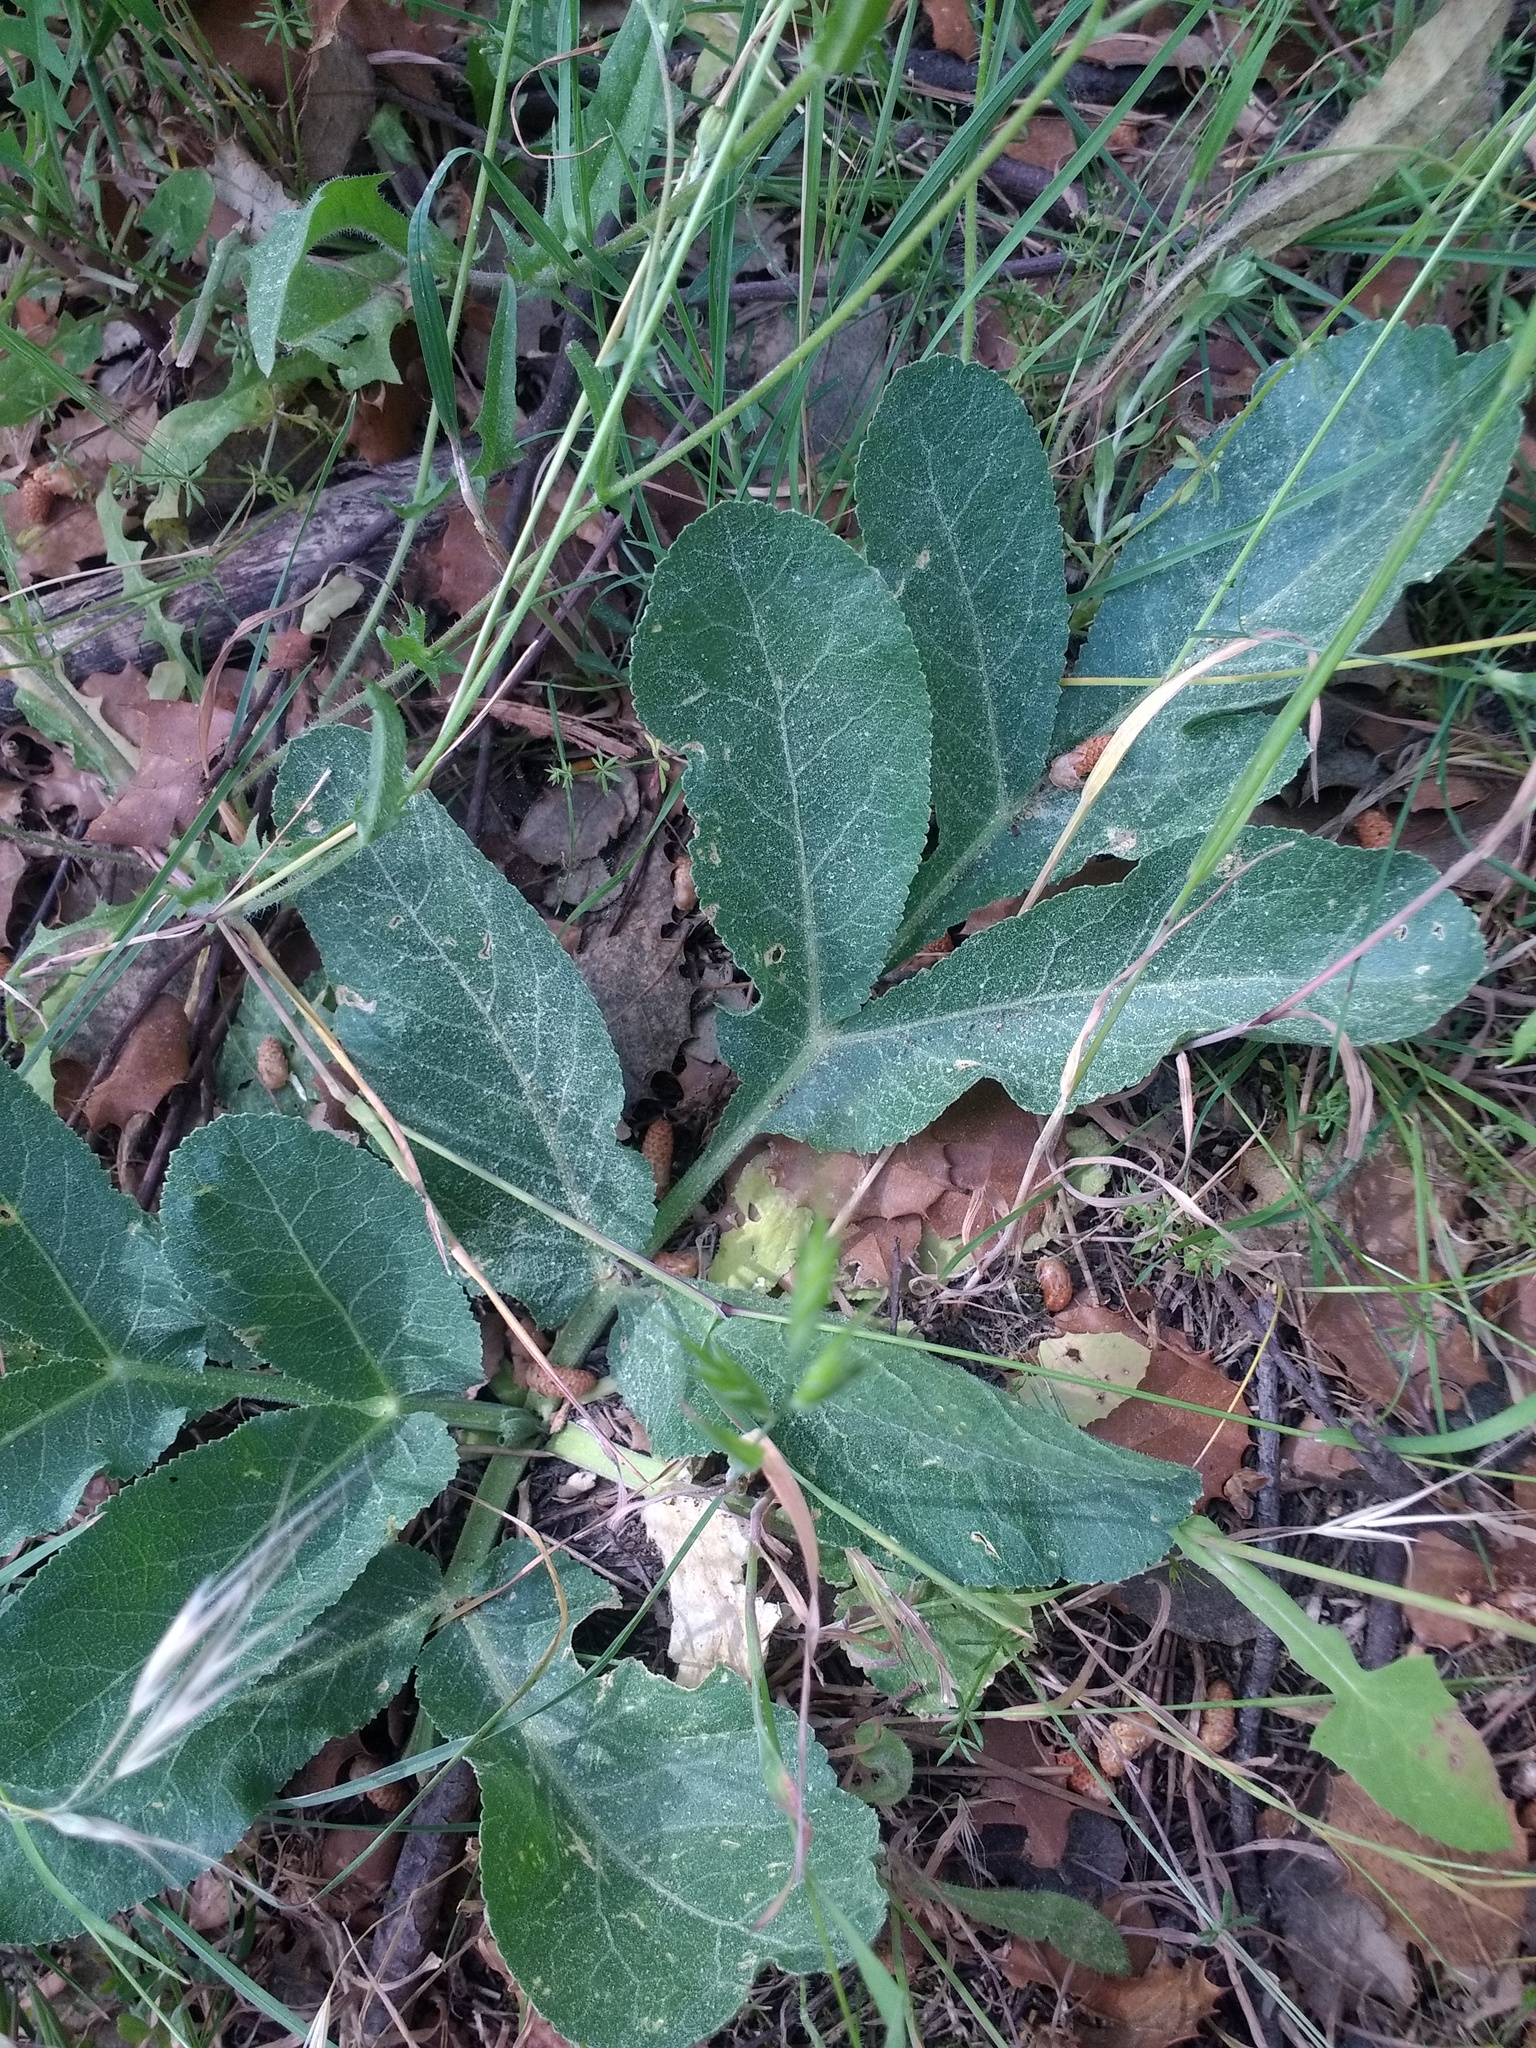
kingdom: Plantae
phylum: Tracheophyta
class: Magnoliopsida
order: Apiales
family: Apiaceae
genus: Magydaris
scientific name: Magydaris panacifolia
